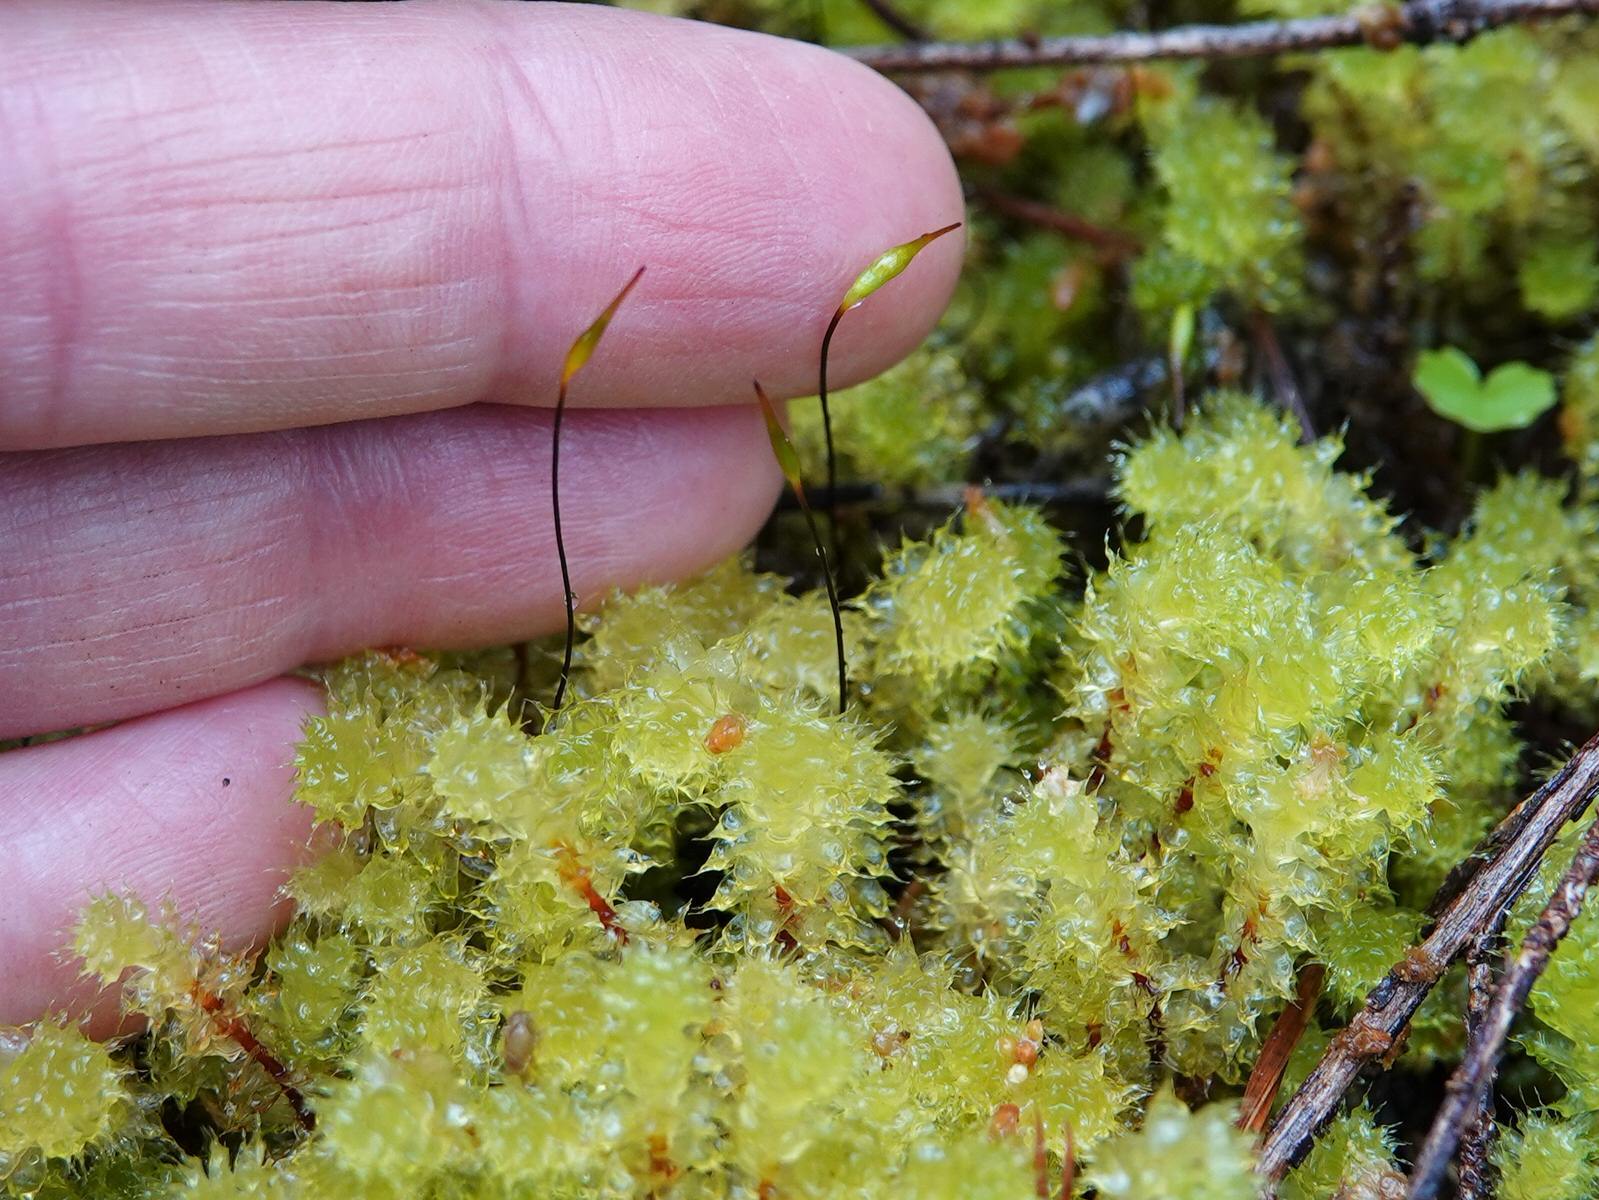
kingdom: Plantae
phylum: Bryophyta
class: Bryopsida
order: Ptychomniales
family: Ptychomniaceae
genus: Ptychomnion
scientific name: Ptychomnion aciculare
